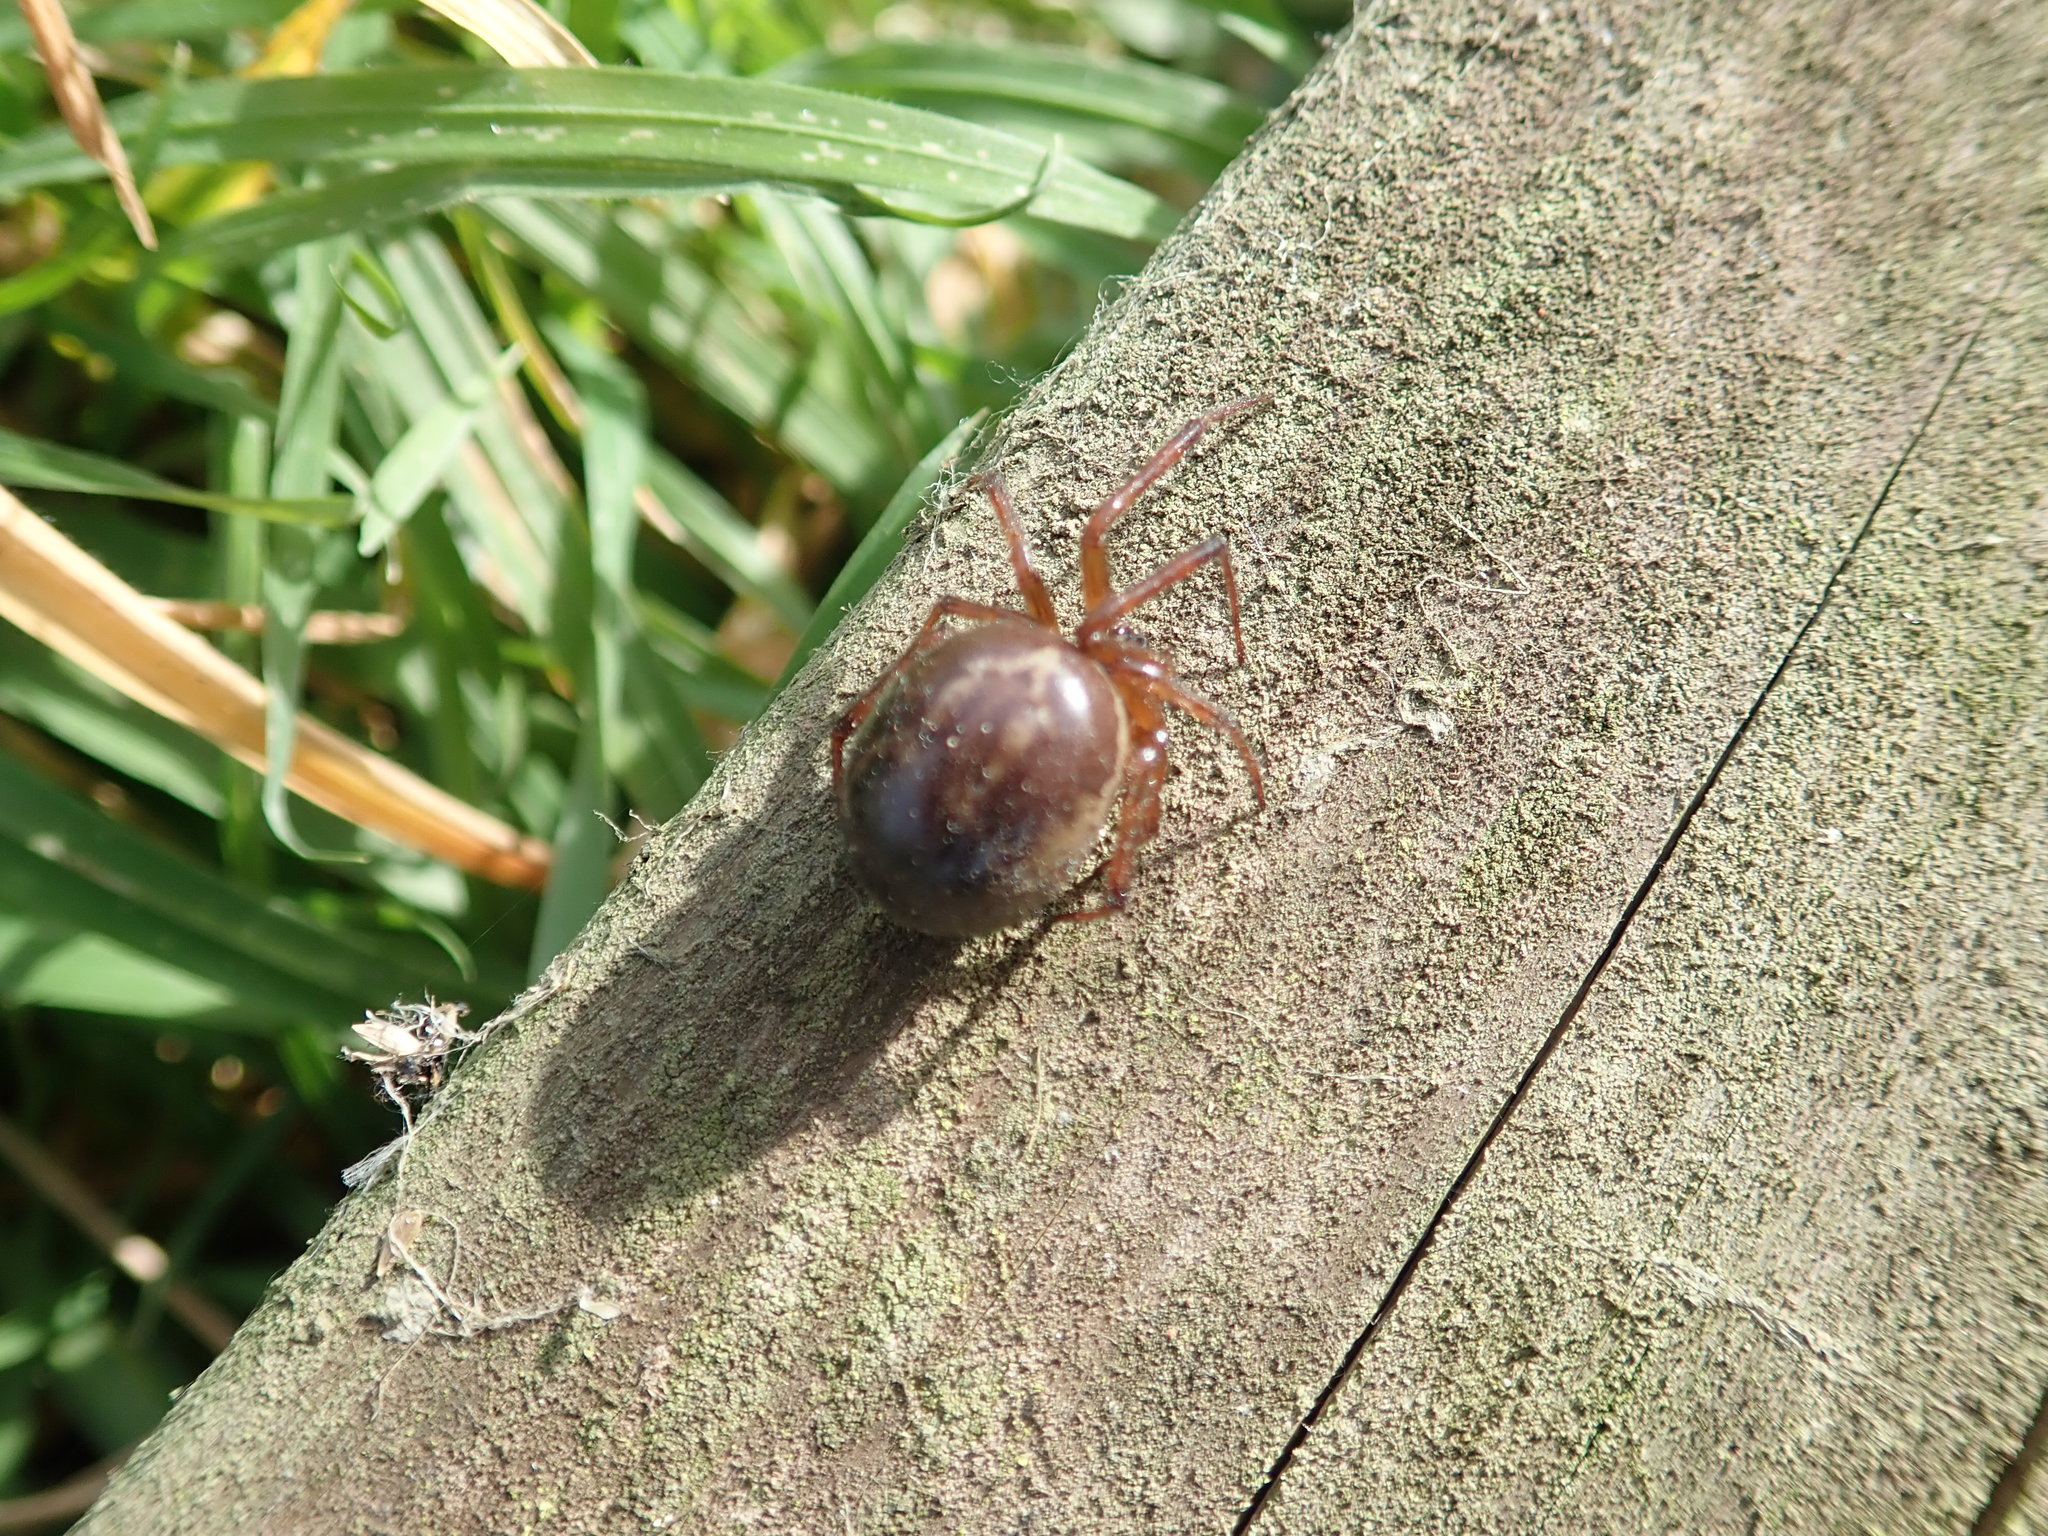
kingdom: Animalia
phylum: Arthropoda
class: Arachnida
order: Araneae
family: Theridiidae
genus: Steatoda
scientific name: Steatoda nobilis
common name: Cobweb weaver
